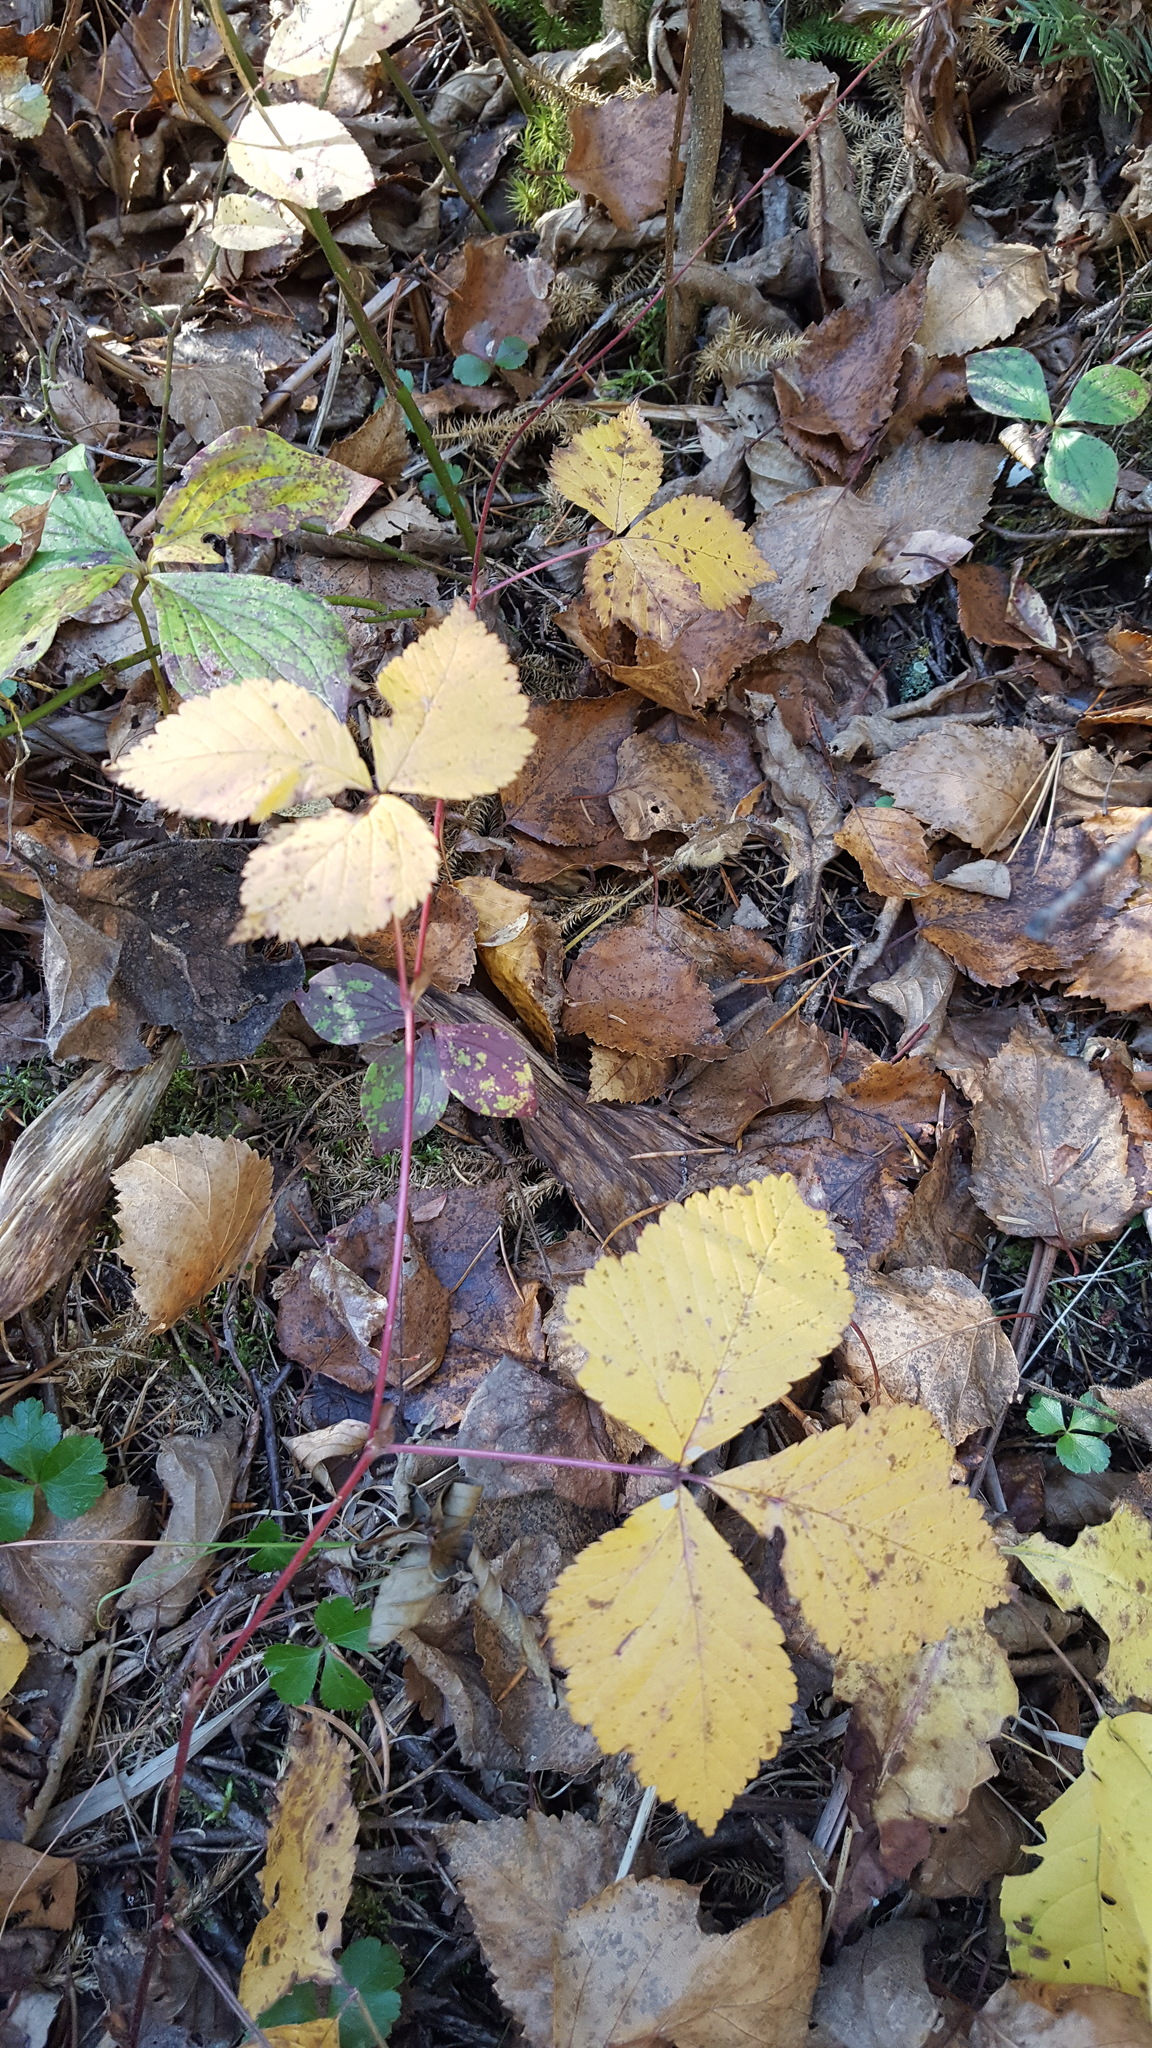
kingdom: Plantae
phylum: Tracheophyta
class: Magnoliopsida
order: Rosales
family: Rosaceae
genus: Rubus
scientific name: Rubus pubescens
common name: Dwarf raspberry
